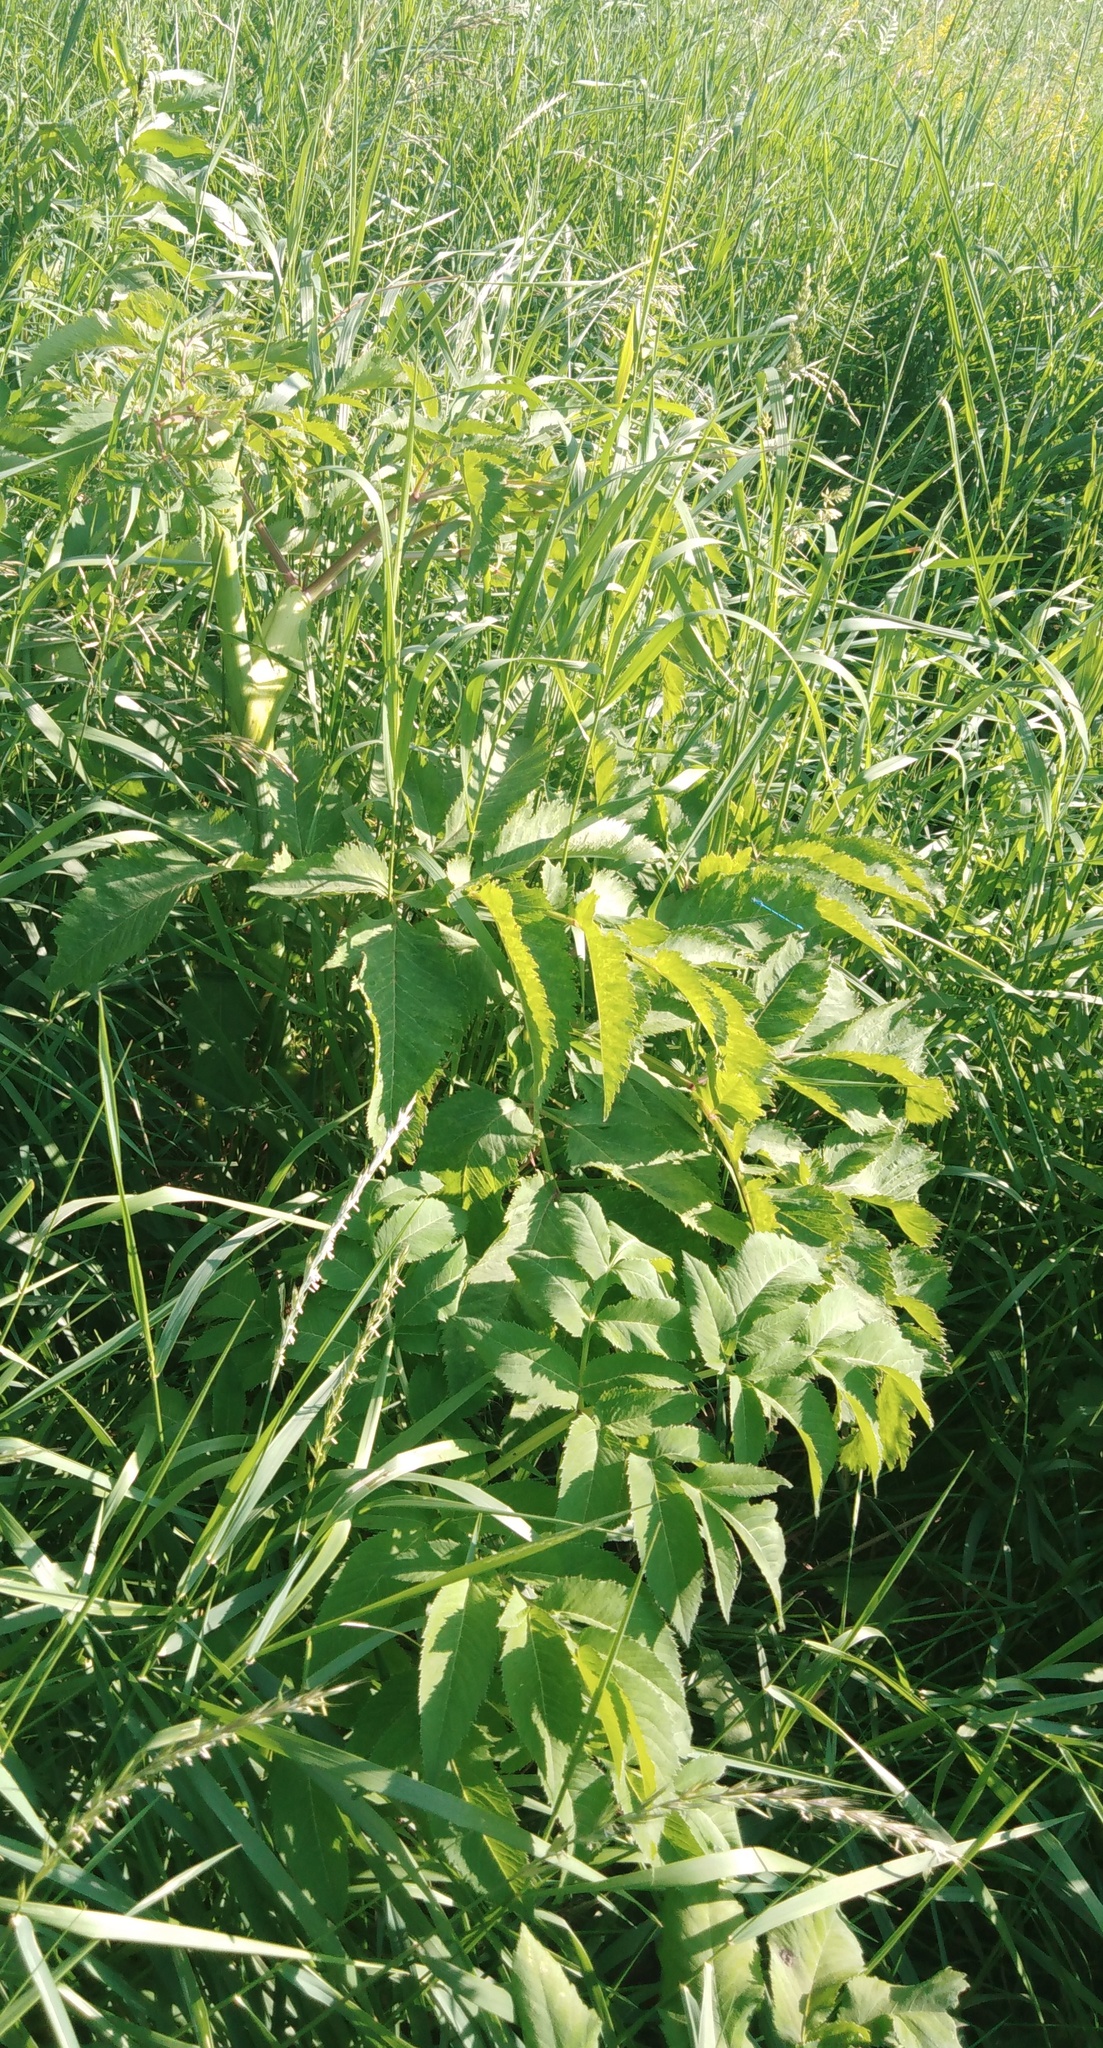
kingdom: Plantae
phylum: Tracheophyta
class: Magnoliopsida
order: Apiales
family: Apiaceae
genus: Angelica
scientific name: Angelica archangelica
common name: Garden angelica
